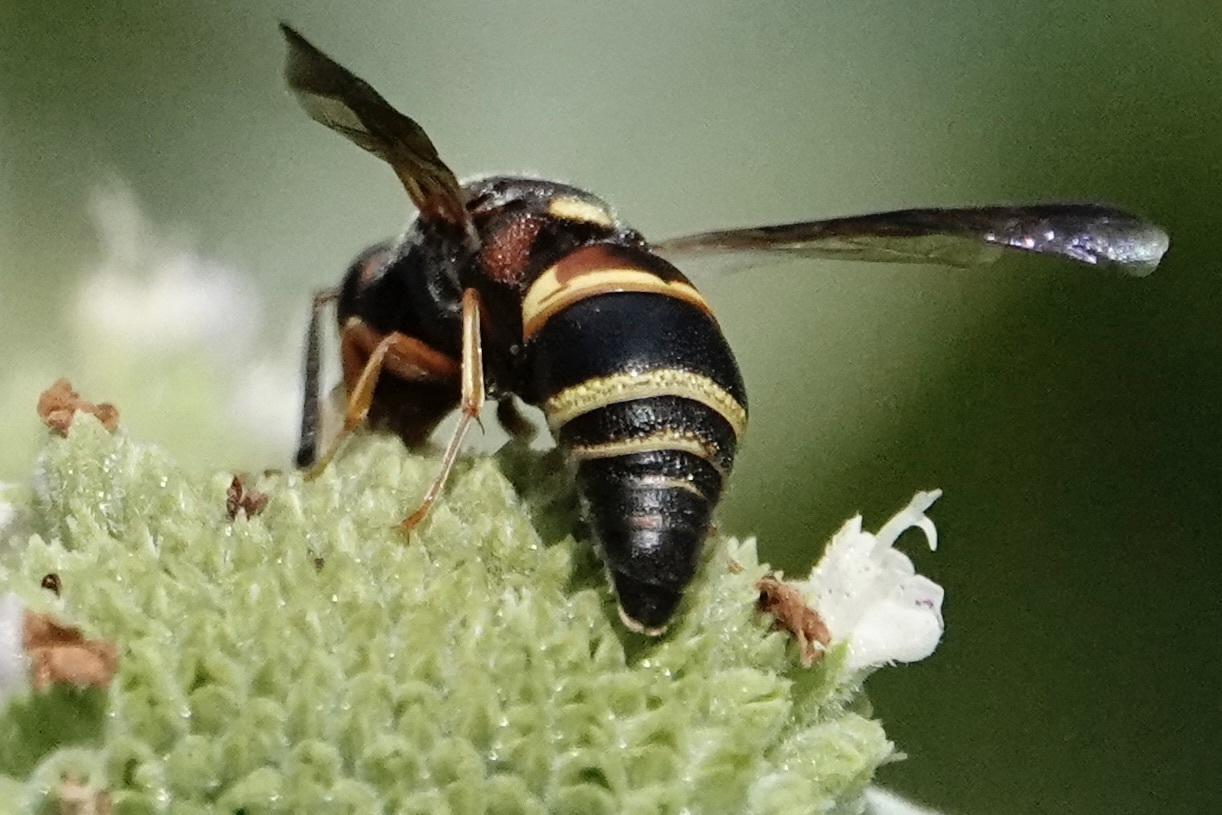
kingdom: Animalia
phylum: Arthropoda
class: Insecta
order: Hymenoptera
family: Eumenidae
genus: Euodynerus
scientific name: Euodynerus hidalgo
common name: Wasp
